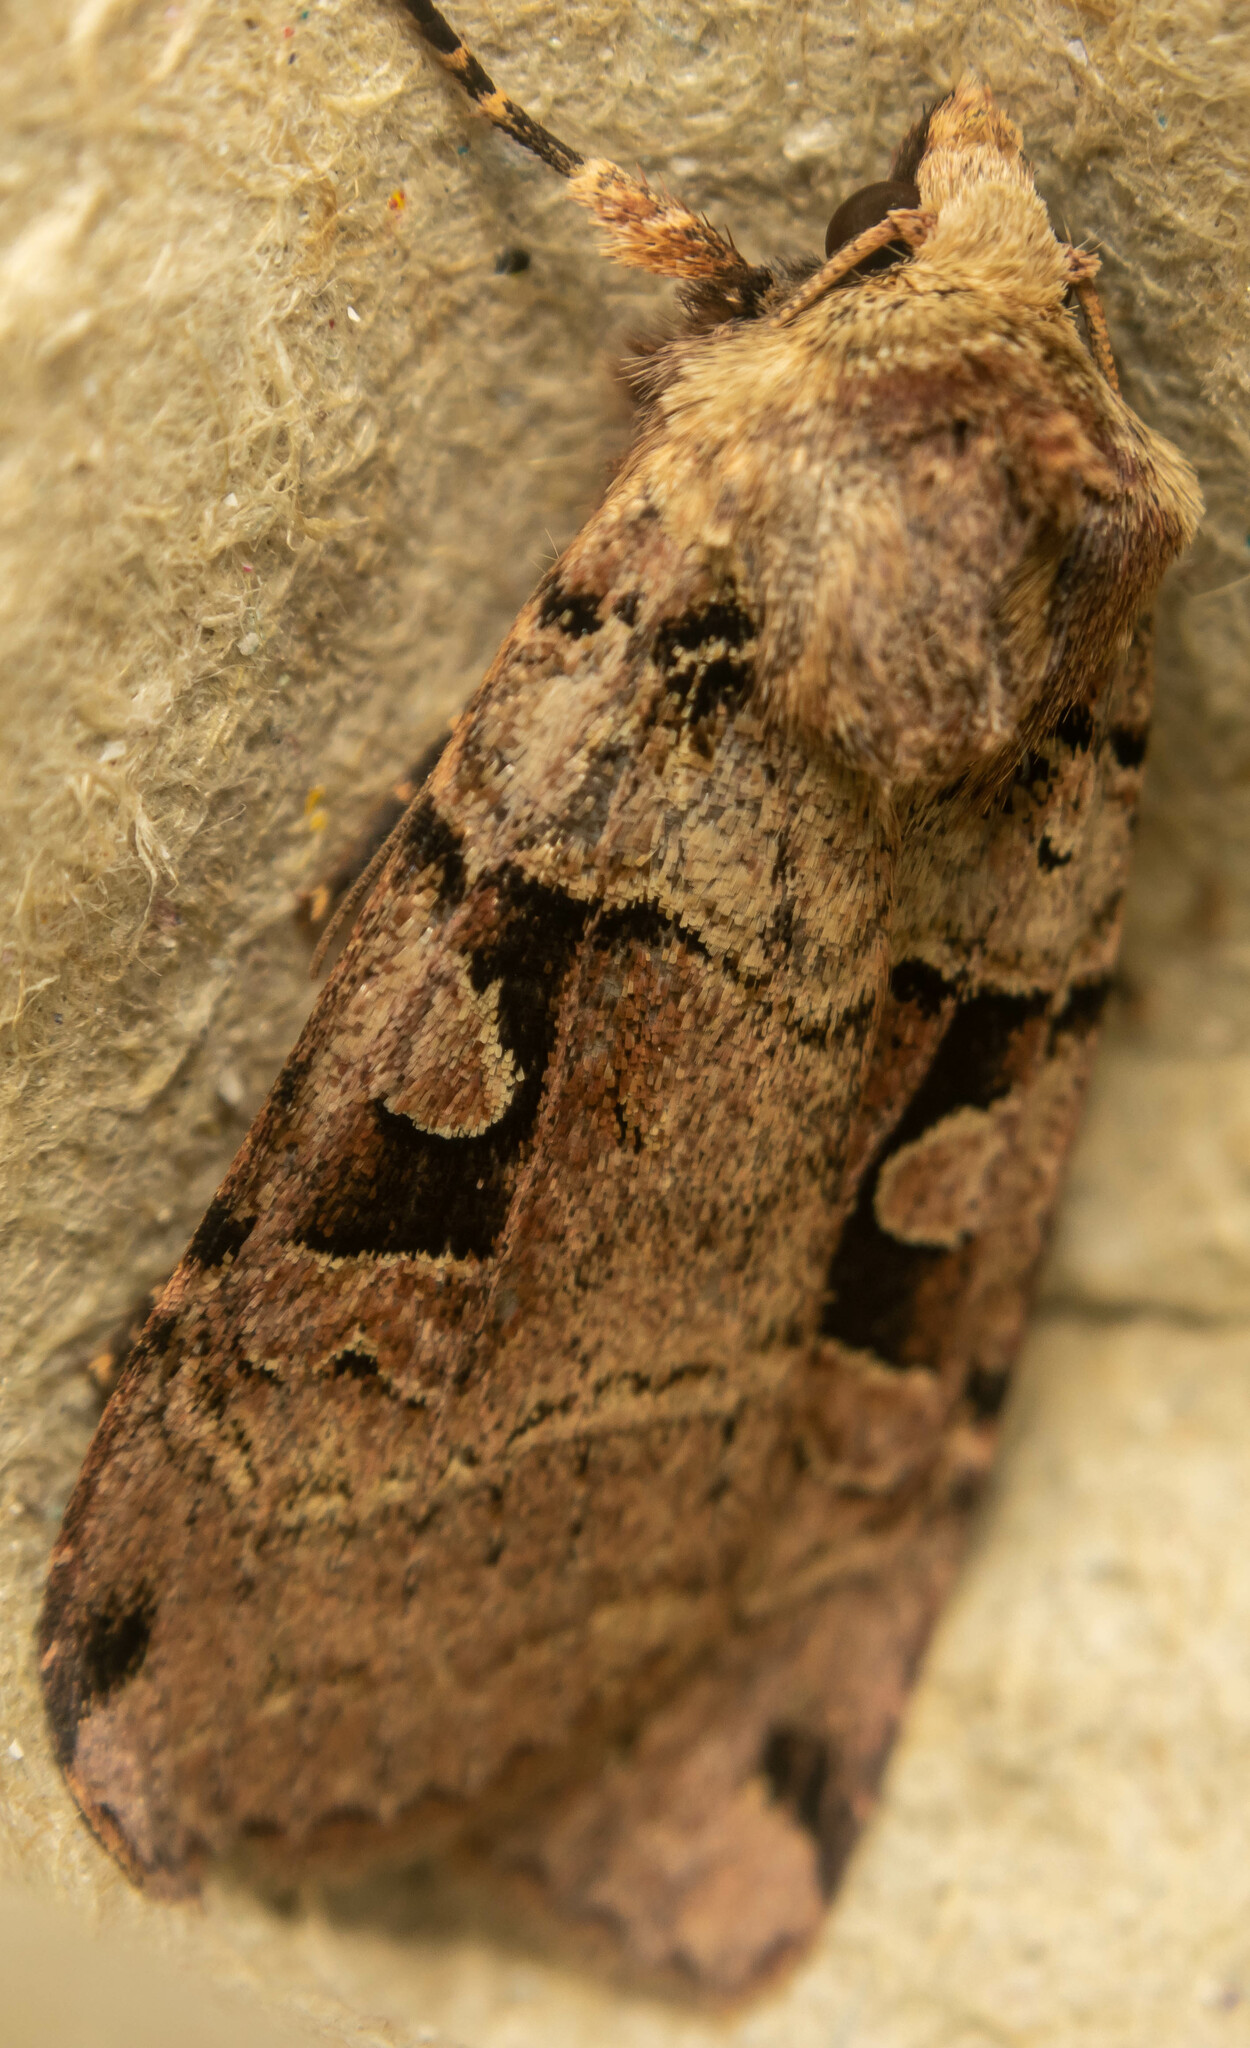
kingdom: Animalia
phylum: Arthropoda
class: Insecta
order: Lepidoptera
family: Noctuidae
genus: Xestia
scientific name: Xestia triangulum
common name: Double square-spot
